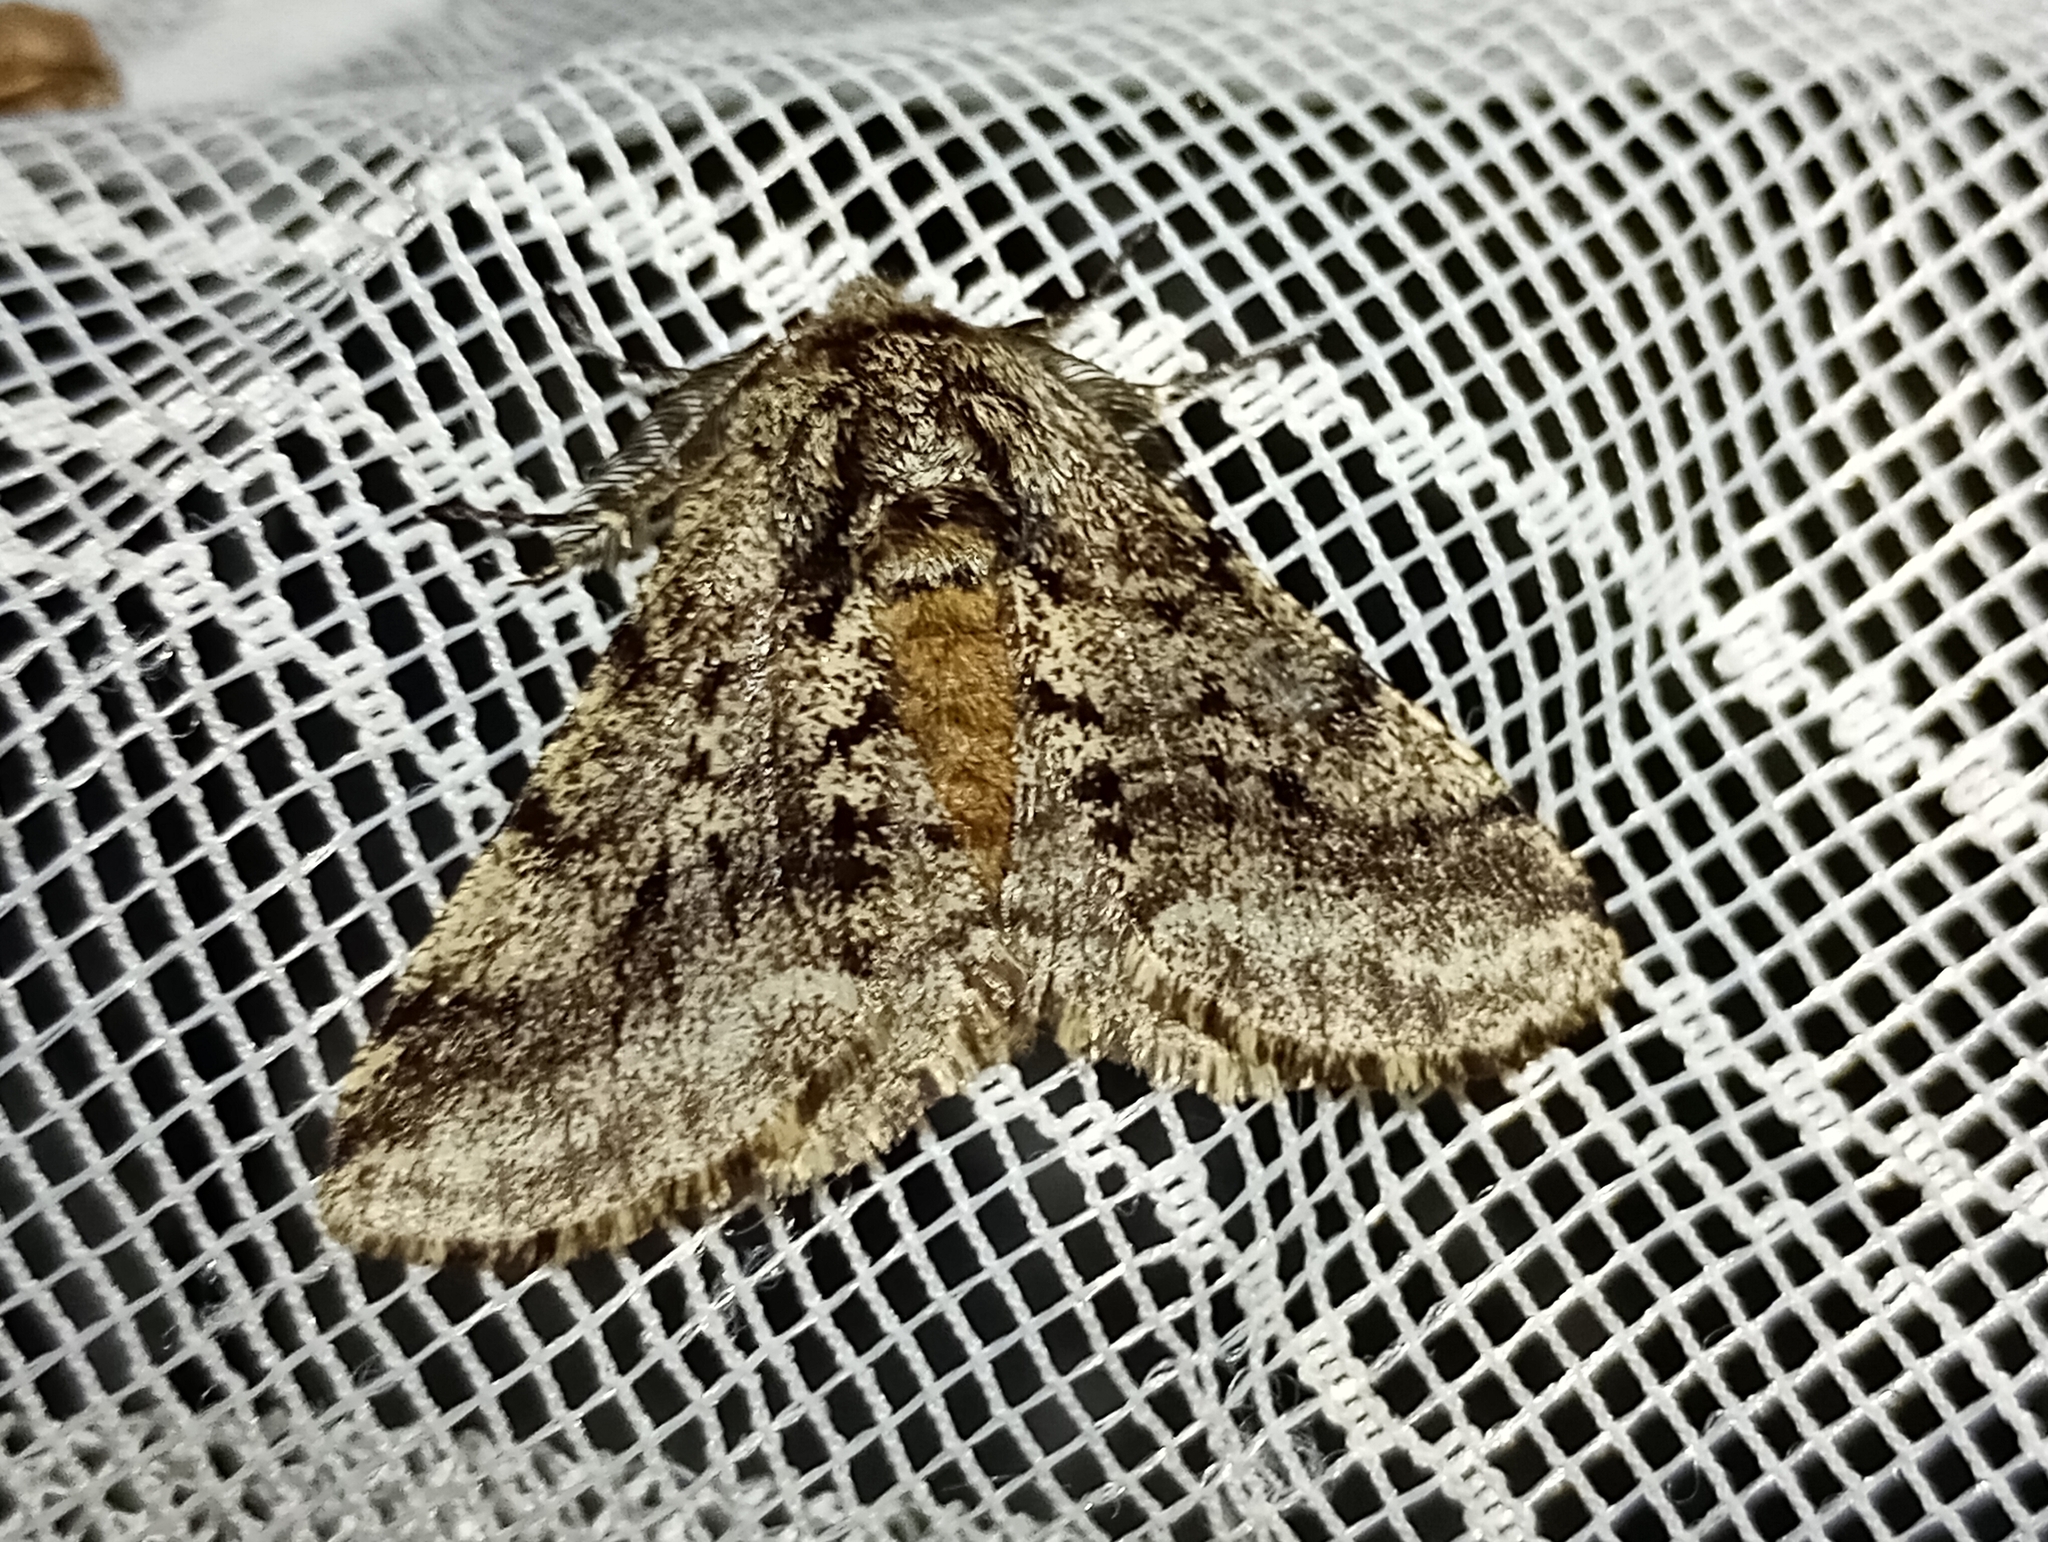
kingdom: Animalia
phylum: Arthropoda
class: Insecta
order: Lepidoptera
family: Geometridae
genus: Lycia
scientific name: Lycia hirtaria
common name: Brindled beauty
